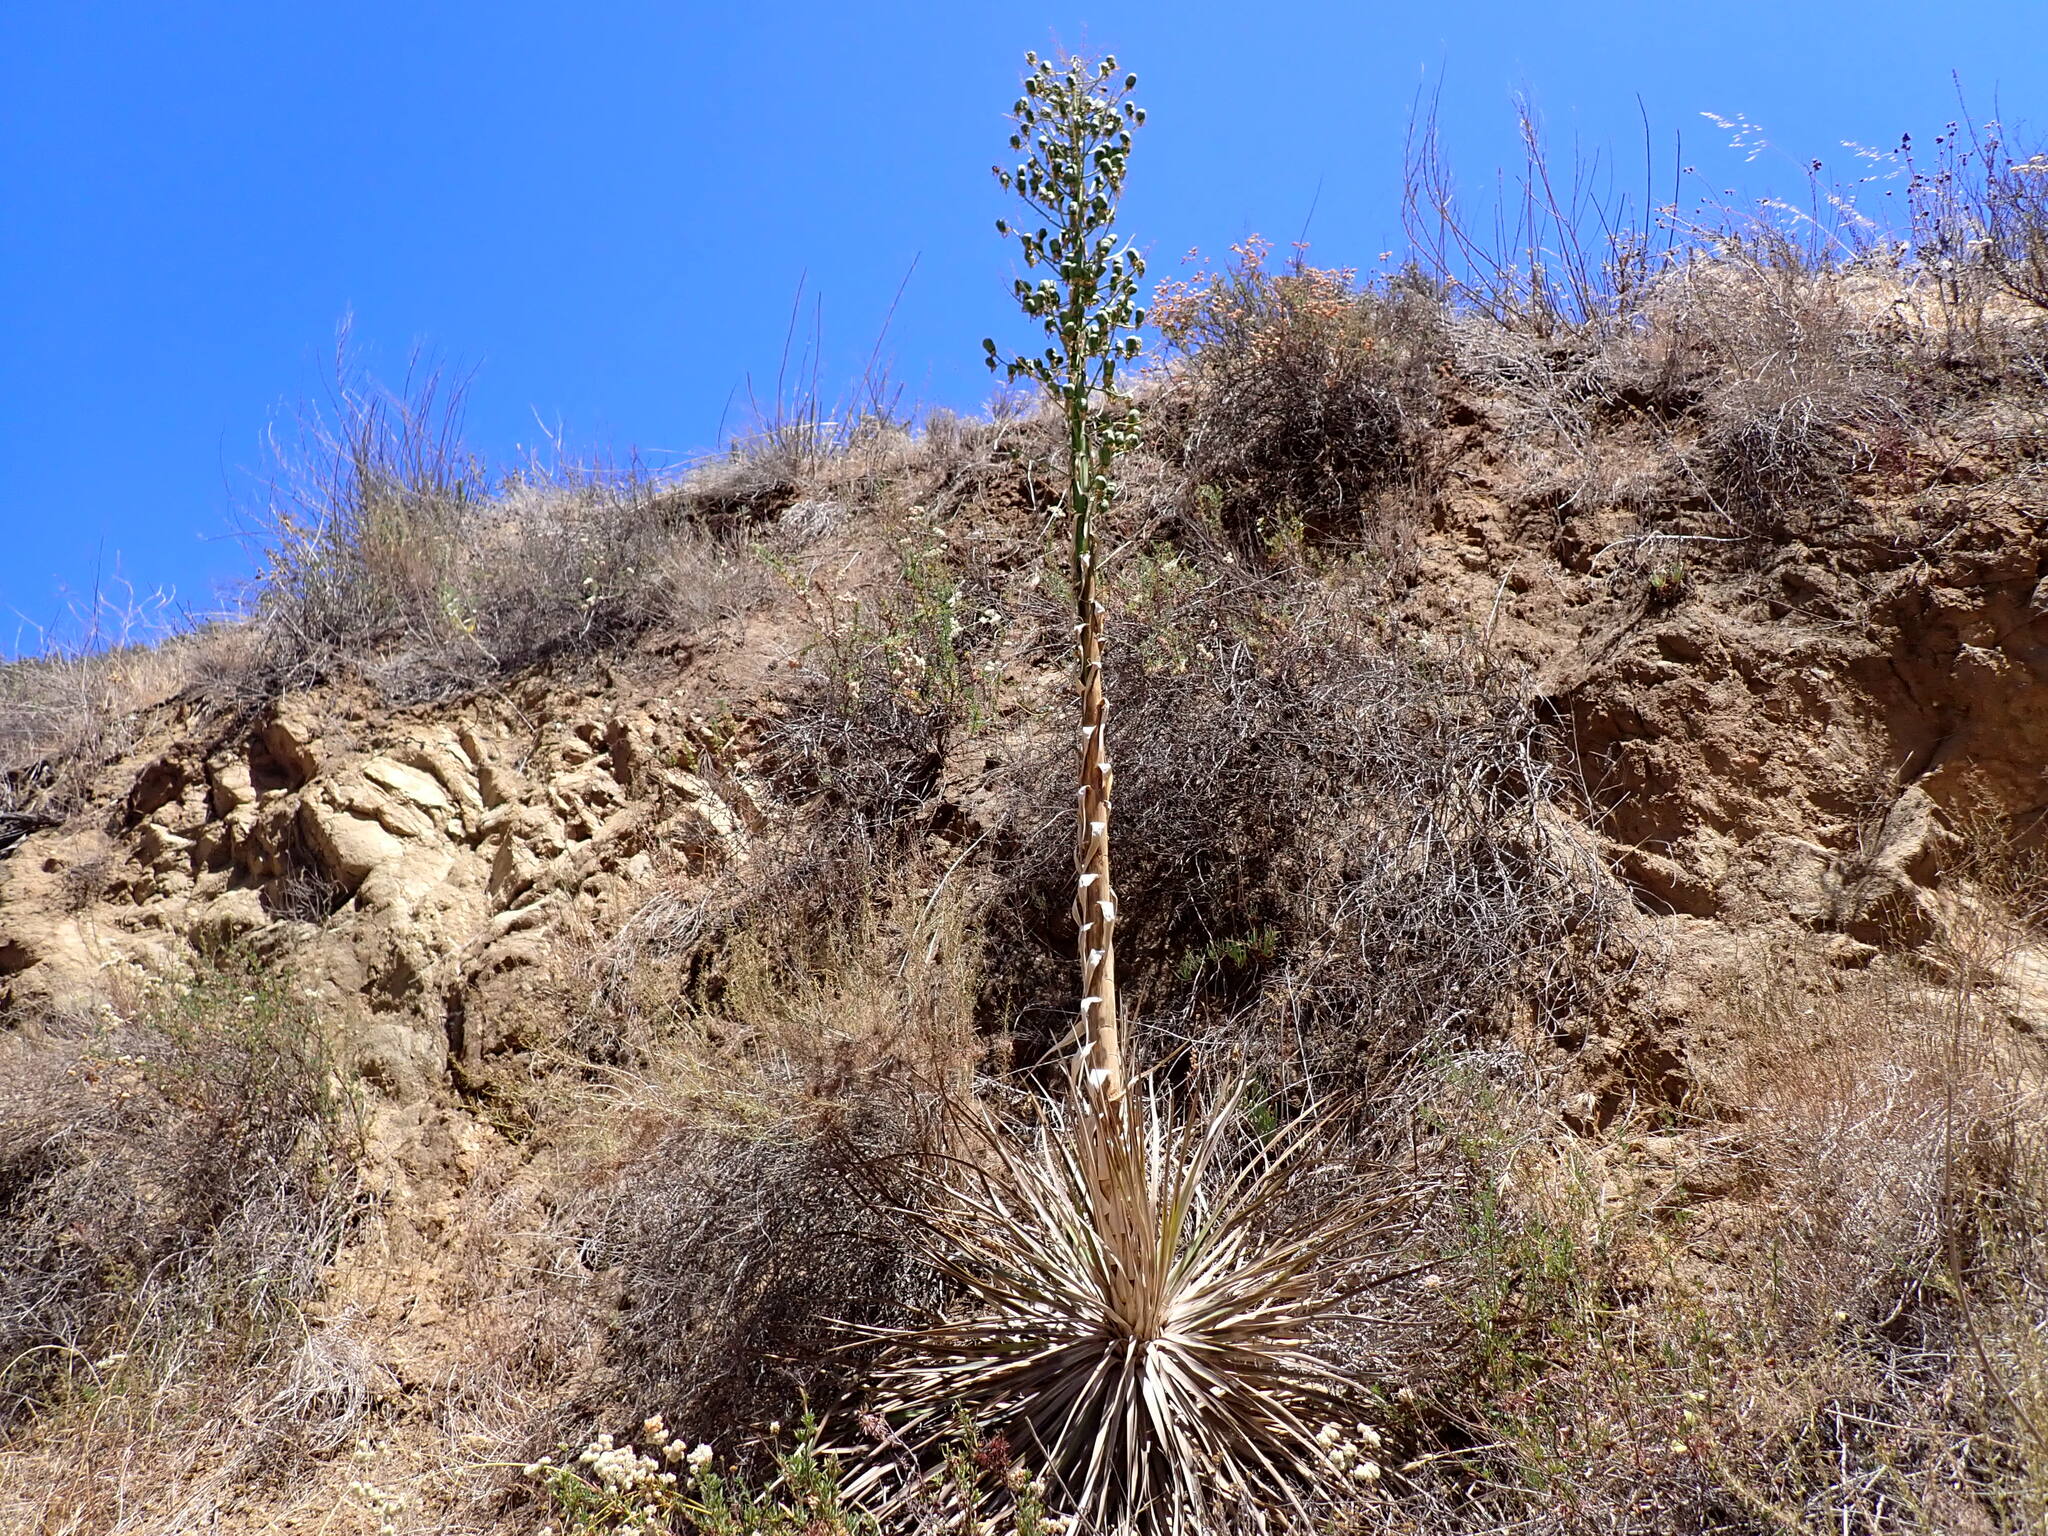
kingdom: Plantae
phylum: Tracheophyta
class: Liliopsida
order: Asparagales
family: Asparagaceae
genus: Hesperoyucca
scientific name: Hesperoyucca whipplei
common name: Our lord's-candle
